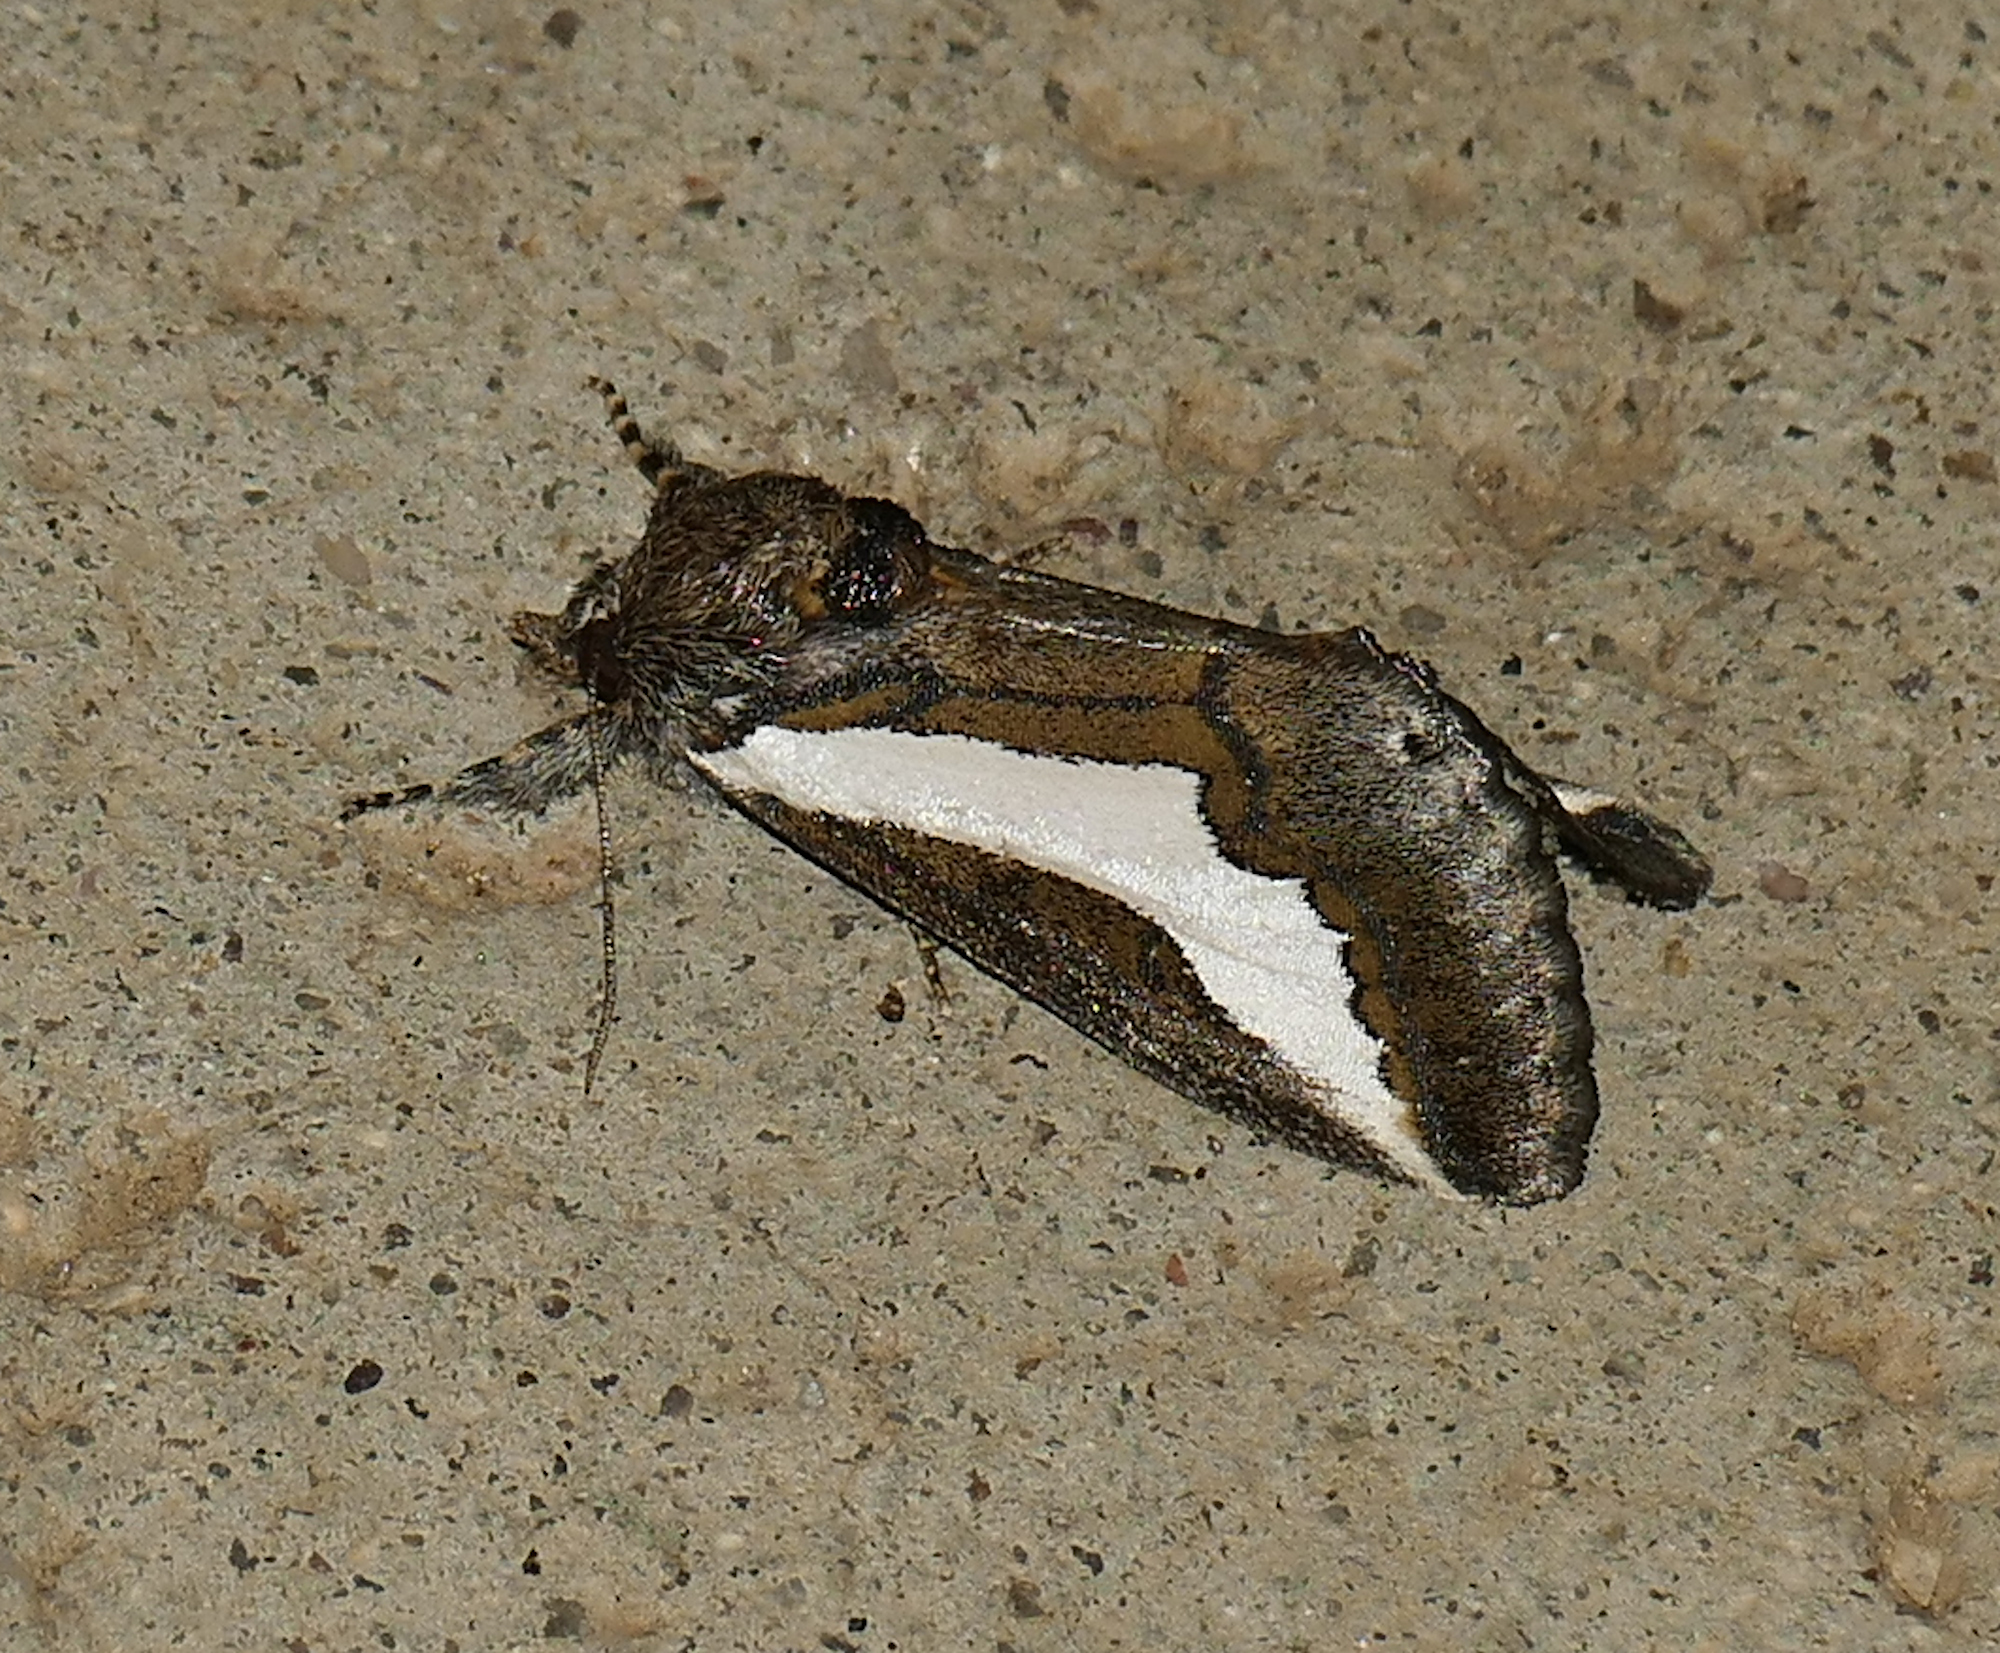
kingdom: Animalia
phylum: Arthropoda
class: Insecta
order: Lepidoptera
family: Noctuidae
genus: Euscirrhopterus
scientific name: Euscirrhopterus cosyra
